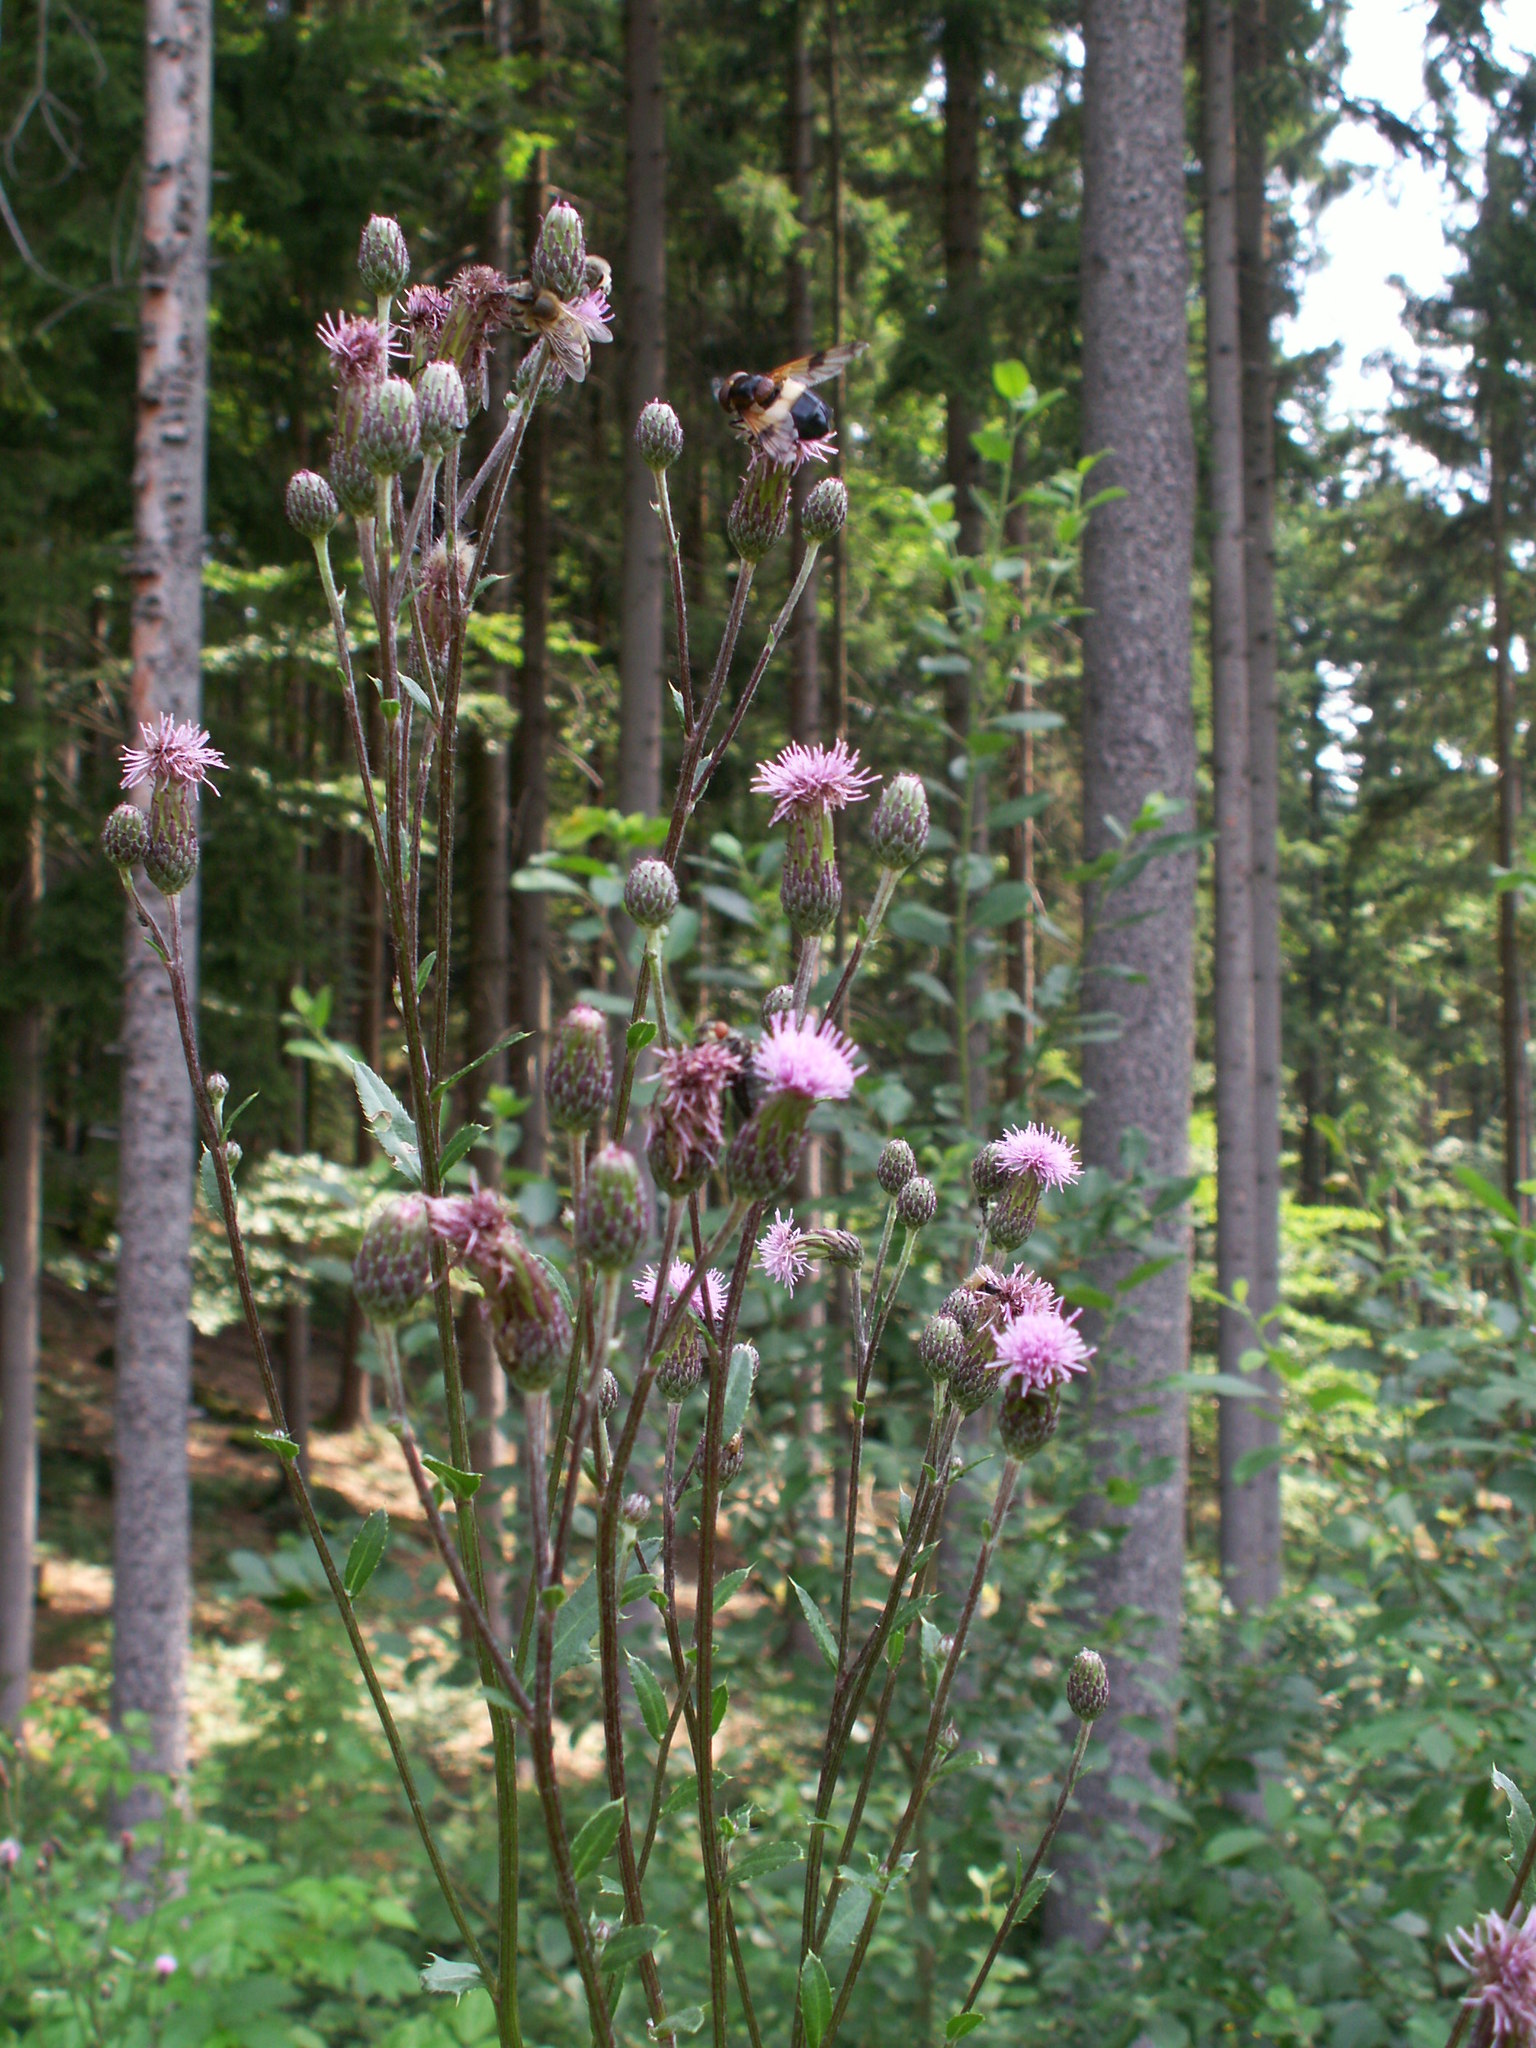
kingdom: Plantae
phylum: Tracheophyta
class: Magnoliopsida
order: Asterales
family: Asteraceae
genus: Cirsium
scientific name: Cirsium arvense
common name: Creeping thistle
